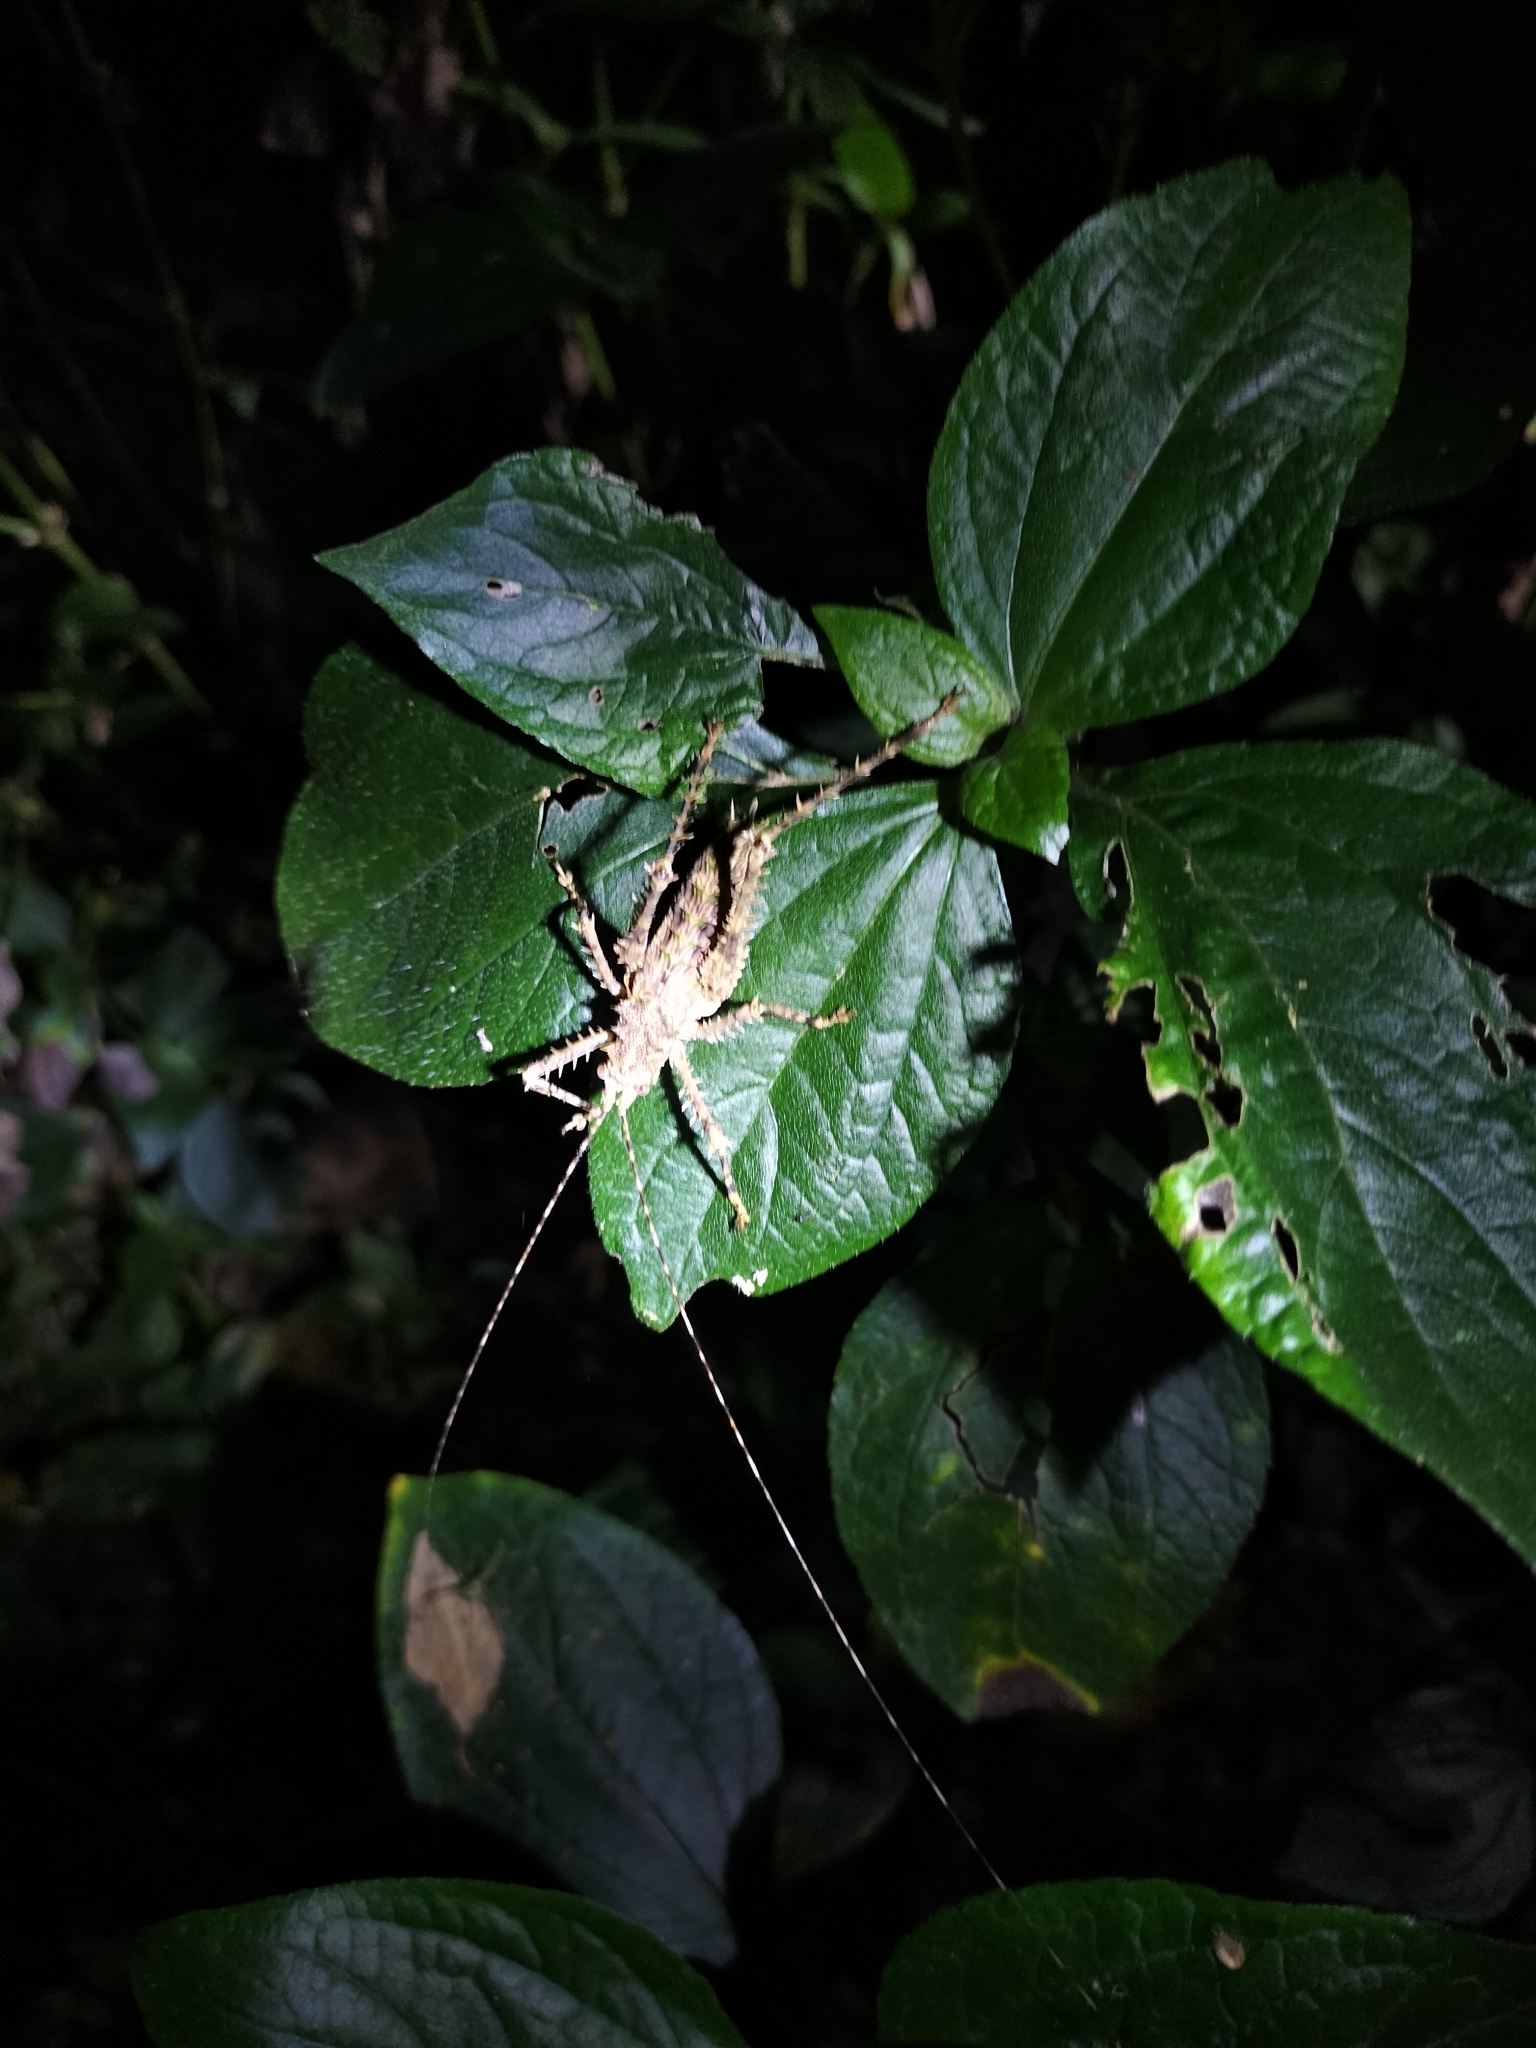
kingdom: Animalia
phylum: Arthropoda
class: Insecta
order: Orthoptera
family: Tettigoniidae
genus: Phricta
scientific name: Phricta spinosa
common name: Giant spiny forest katydid
